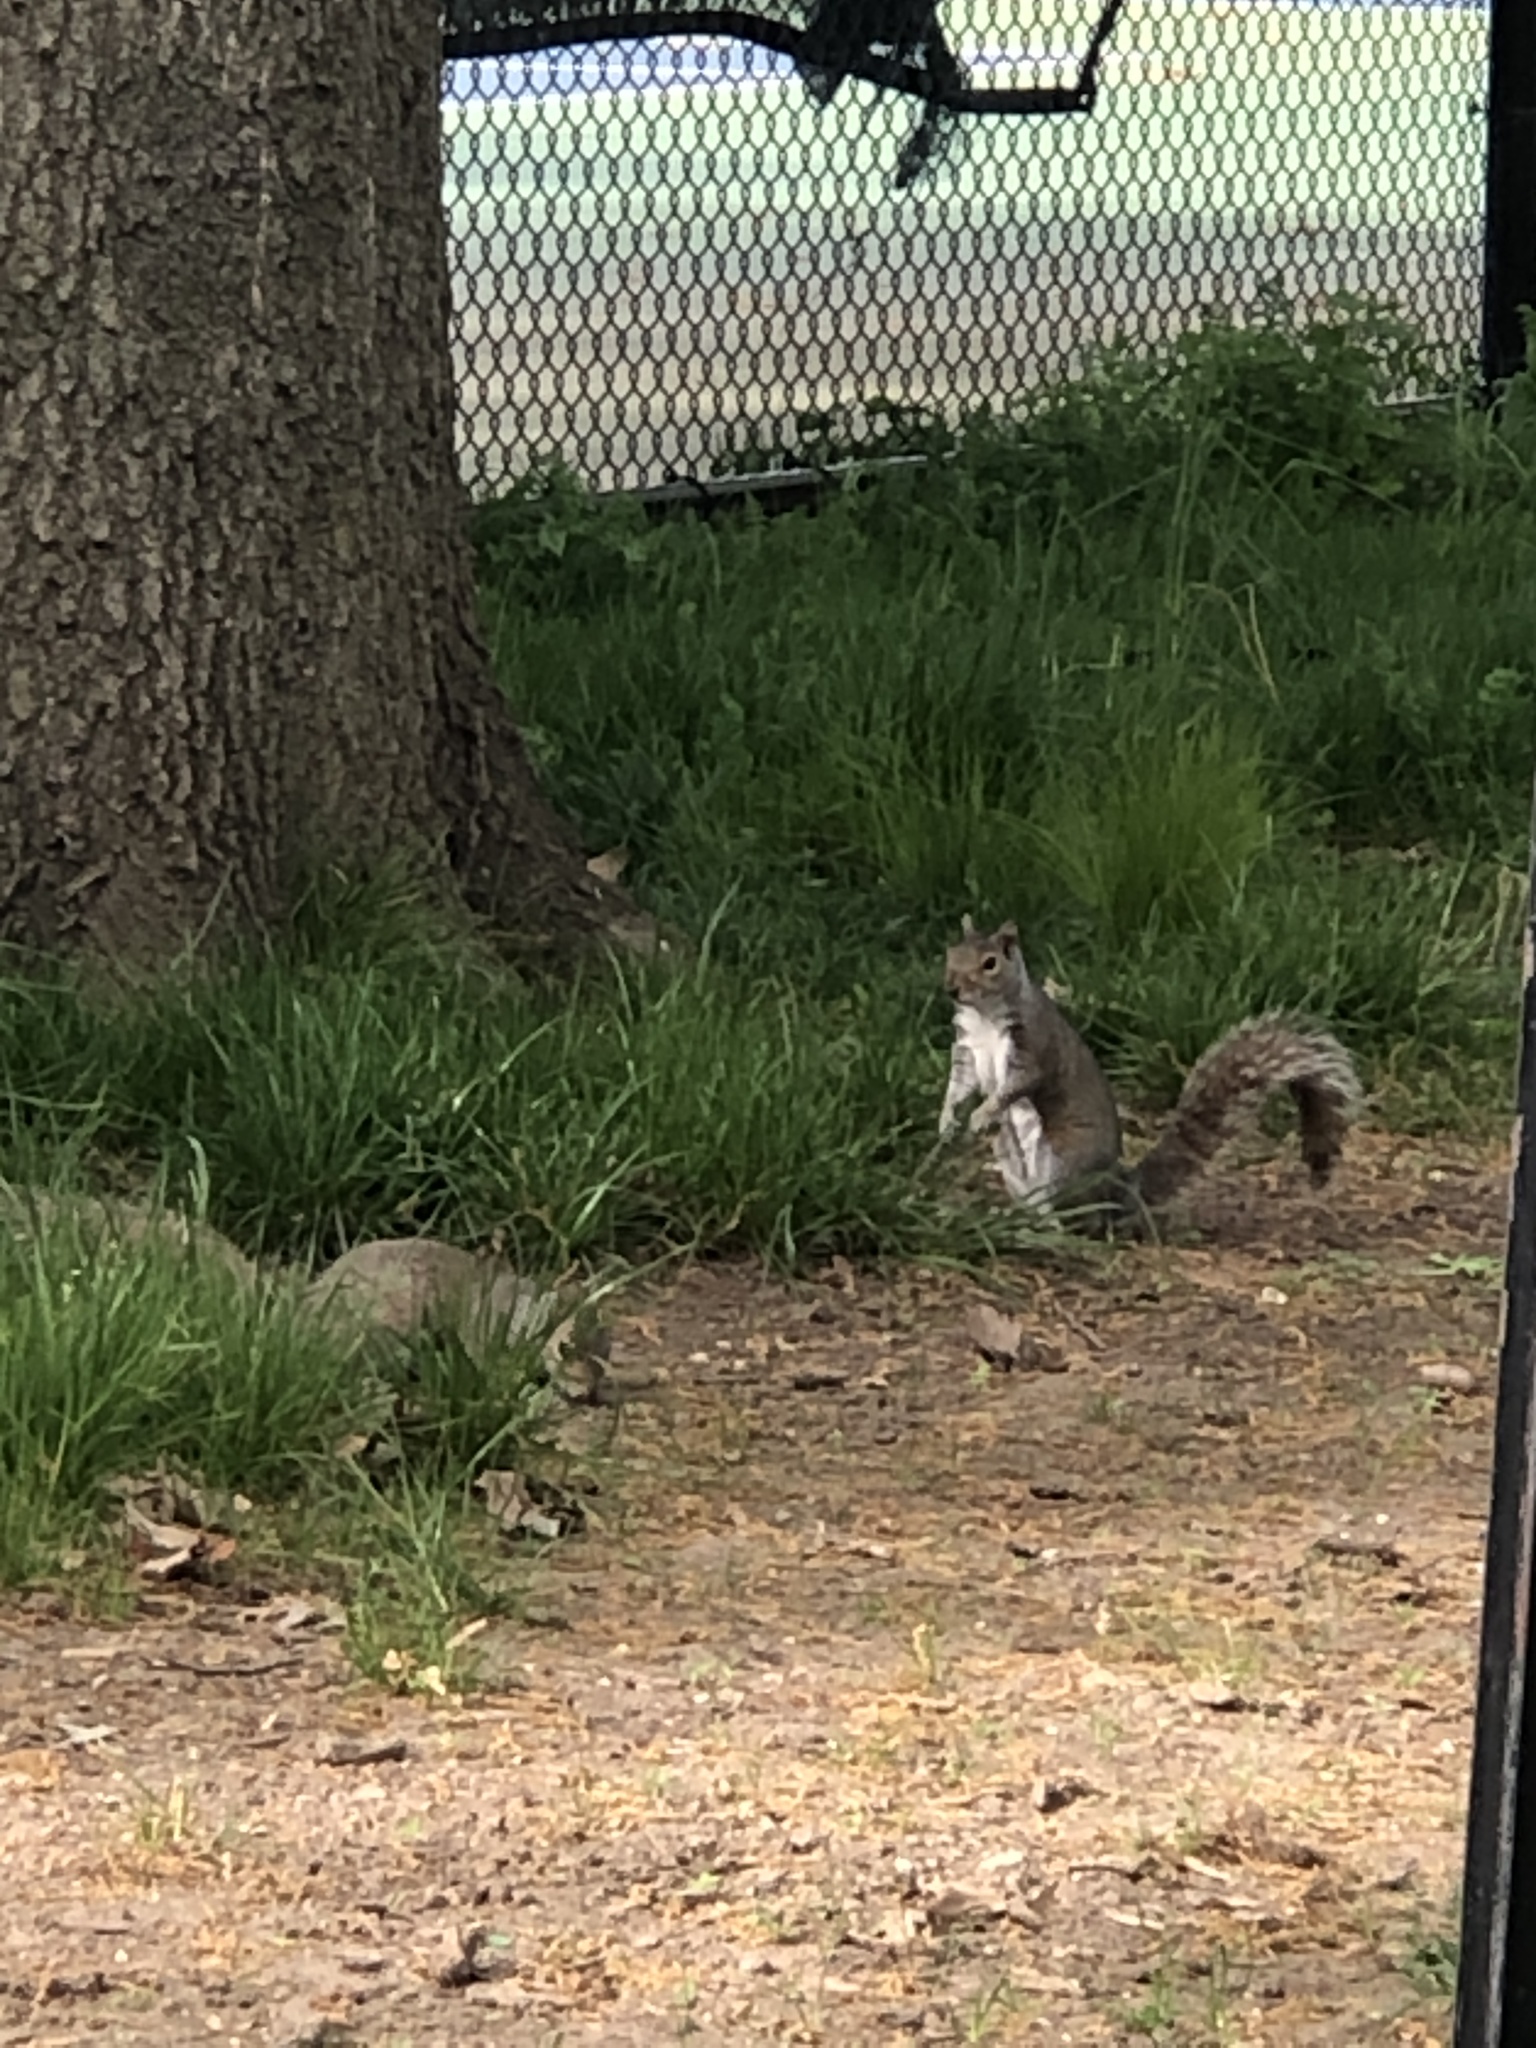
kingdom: Animalia
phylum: Chordata
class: Mammalia
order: Rodentia
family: Sciuridae
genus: Sciurus
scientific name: Sciurus carolinensis
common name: Eastern gray squirrel
